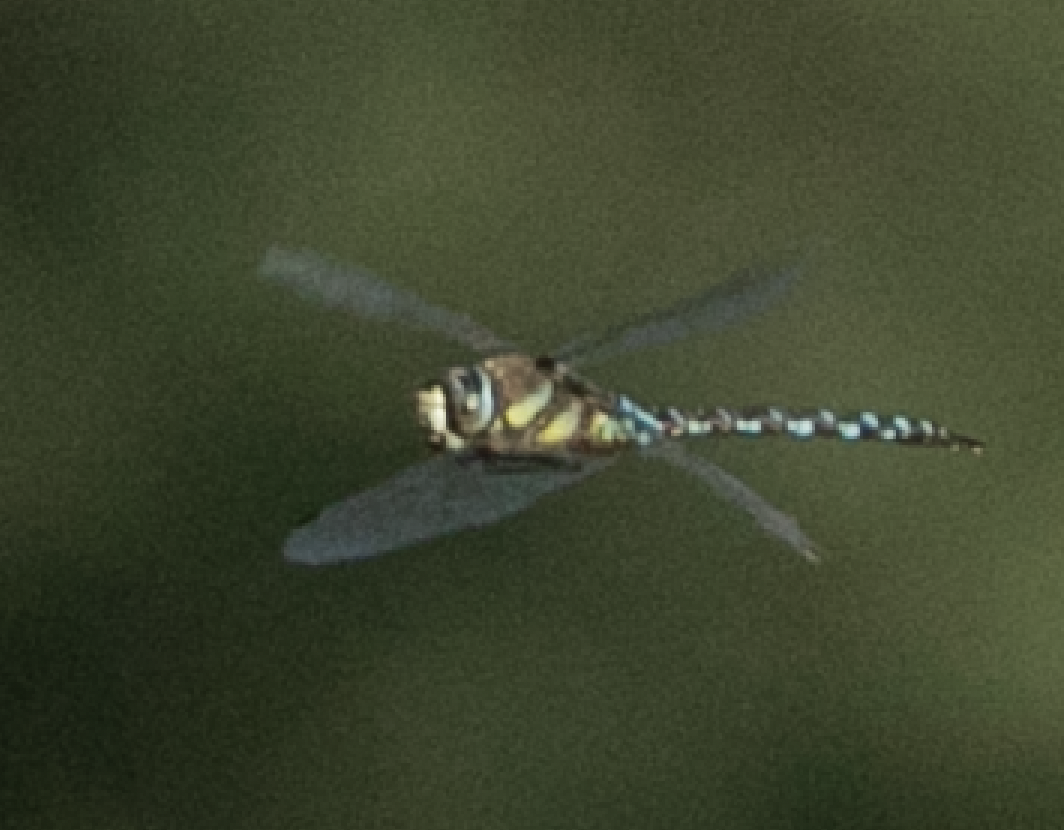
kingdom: Animalia
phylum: Arthropoda
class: Insecta
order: Odonata
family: Aeshnidae
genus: Aeshna
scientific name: Aeshna mixta
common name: Migrant hawker
